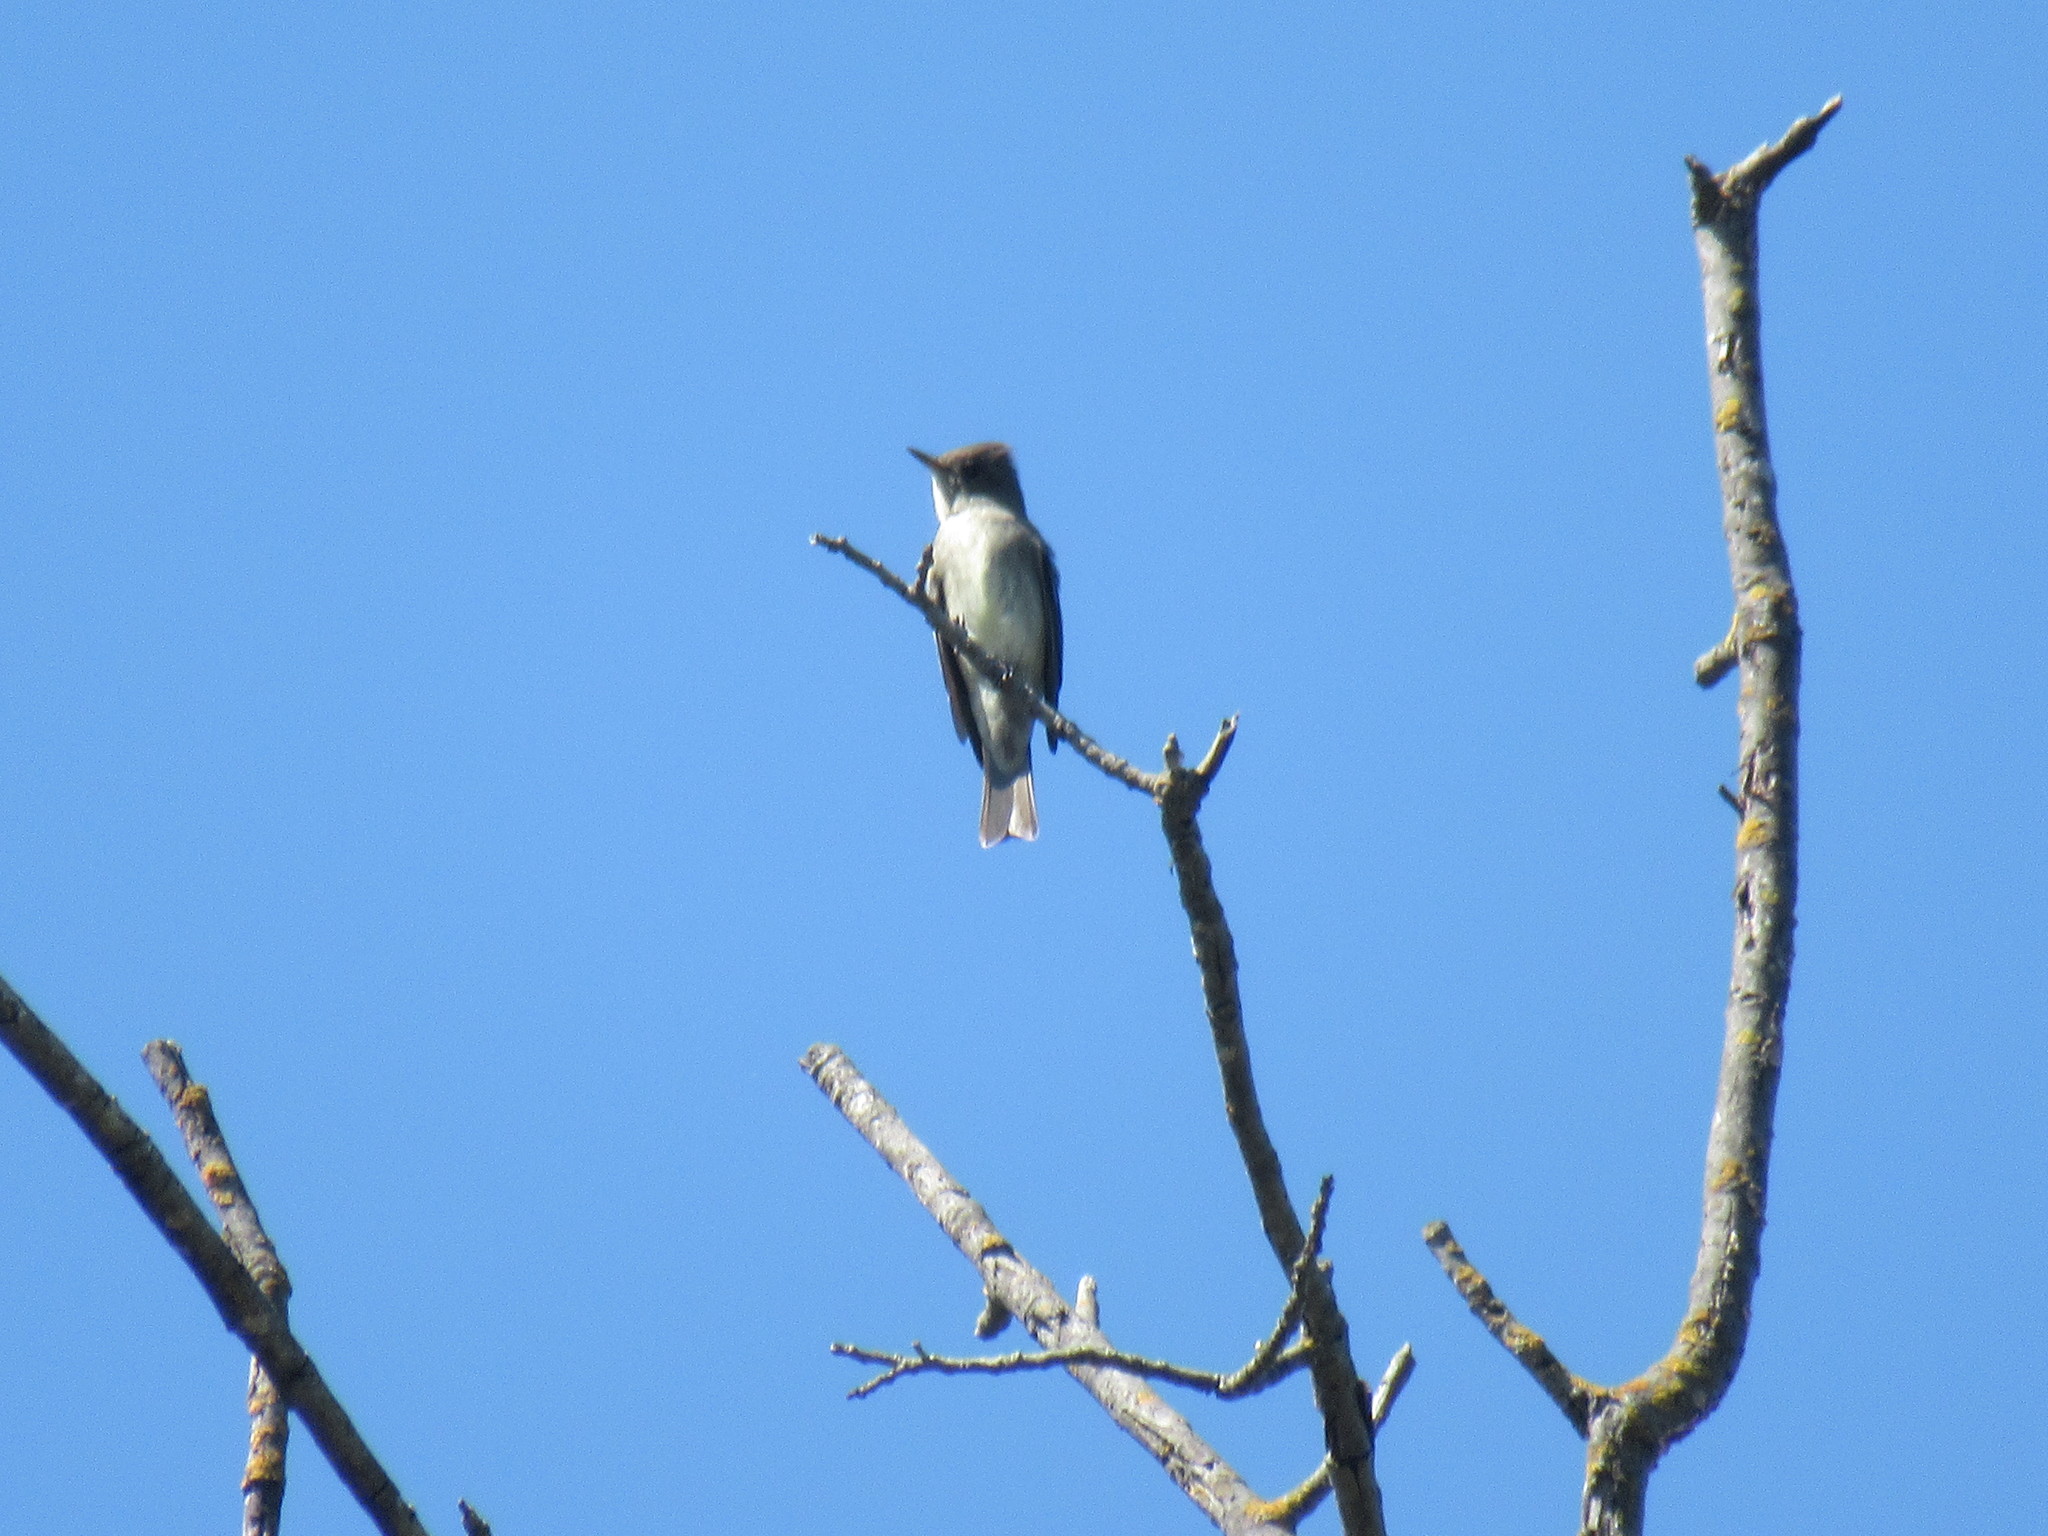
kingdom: Animalia
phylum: Chordata
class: Aves
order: Passeriformes
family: Tyrannidae
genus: Contopus
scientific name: Contopus cooperi
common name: Olive-sided flycatcher
